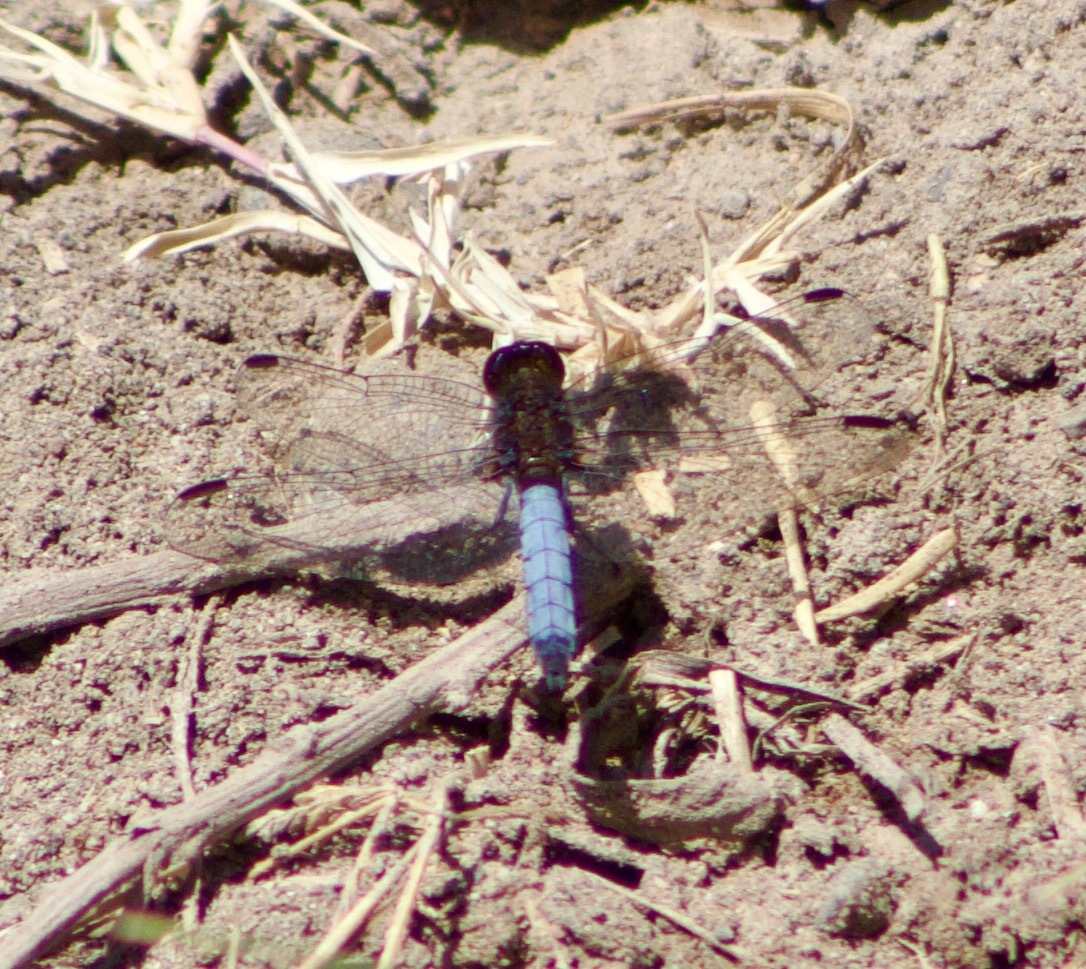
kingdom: Animalia
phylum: Arthropoda
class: Insecta
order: Odonata
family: Libellulidae
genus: Erythrodiplax
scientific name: Erythrodiplax connata
